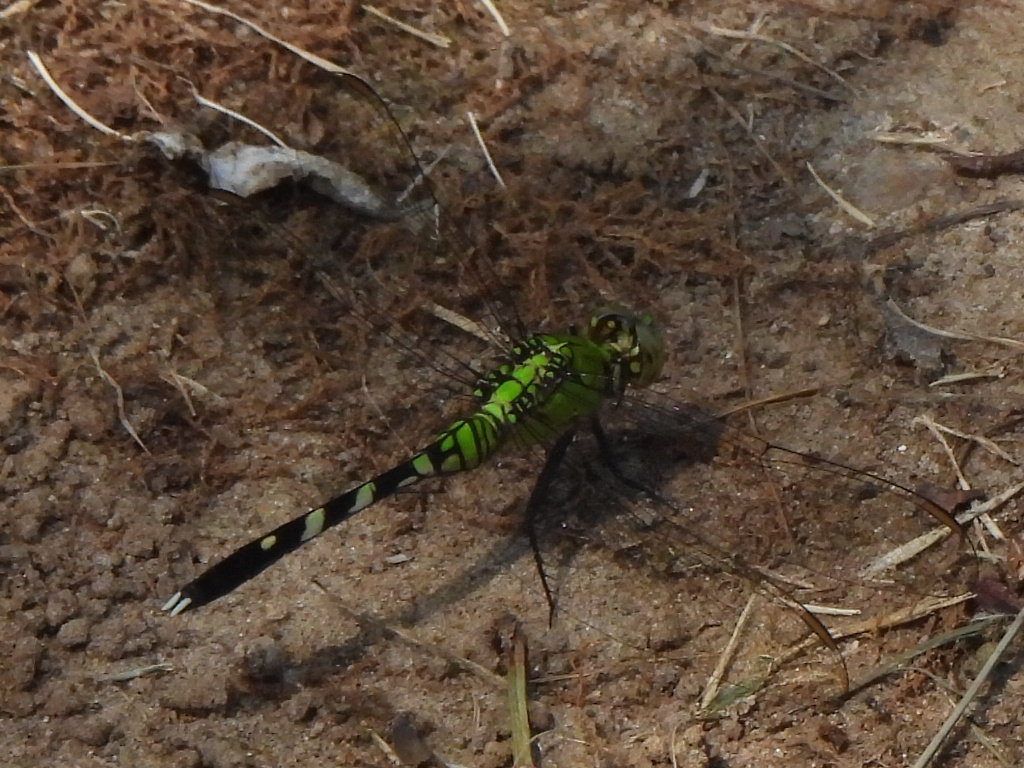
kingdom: Animalia
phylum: Arthropoda
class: Insecta
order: Odonata
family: Libellulidae
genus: Erythemis
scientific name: Erythemis simplicicollis
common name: Eastern pondhawk
